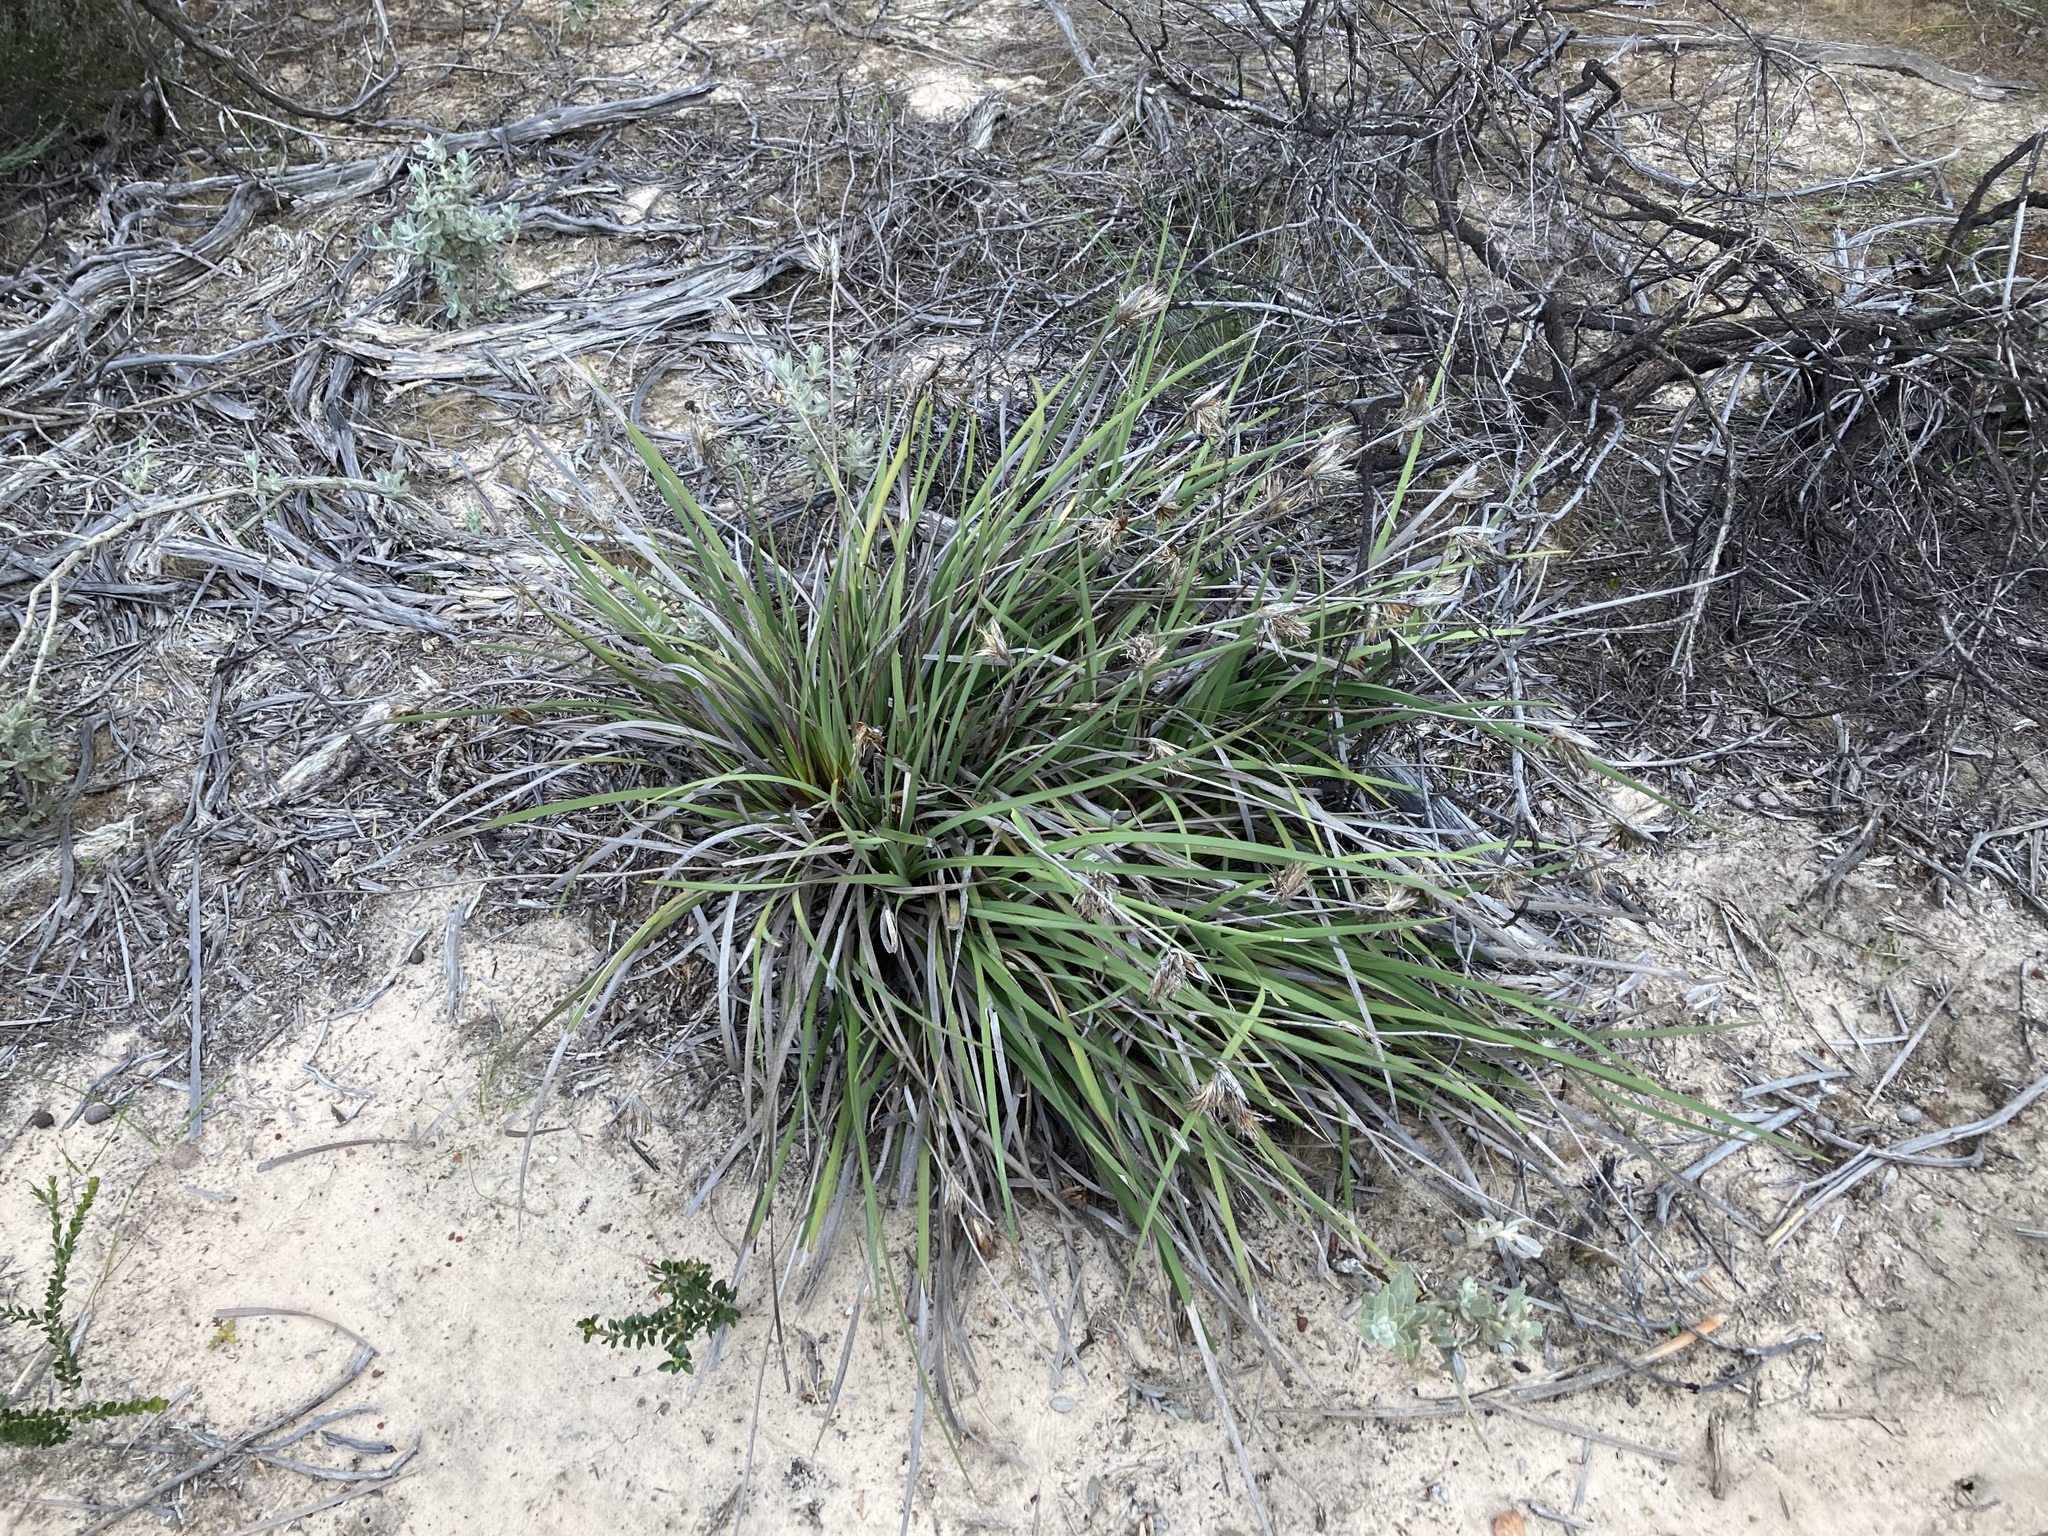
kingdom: Plantae
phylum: Tracheophyta
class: Liliopsida
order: Asparagales
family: Iridaceae
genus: Patersonia
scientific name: Patersonia occidentalis
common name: Long purple-flag
